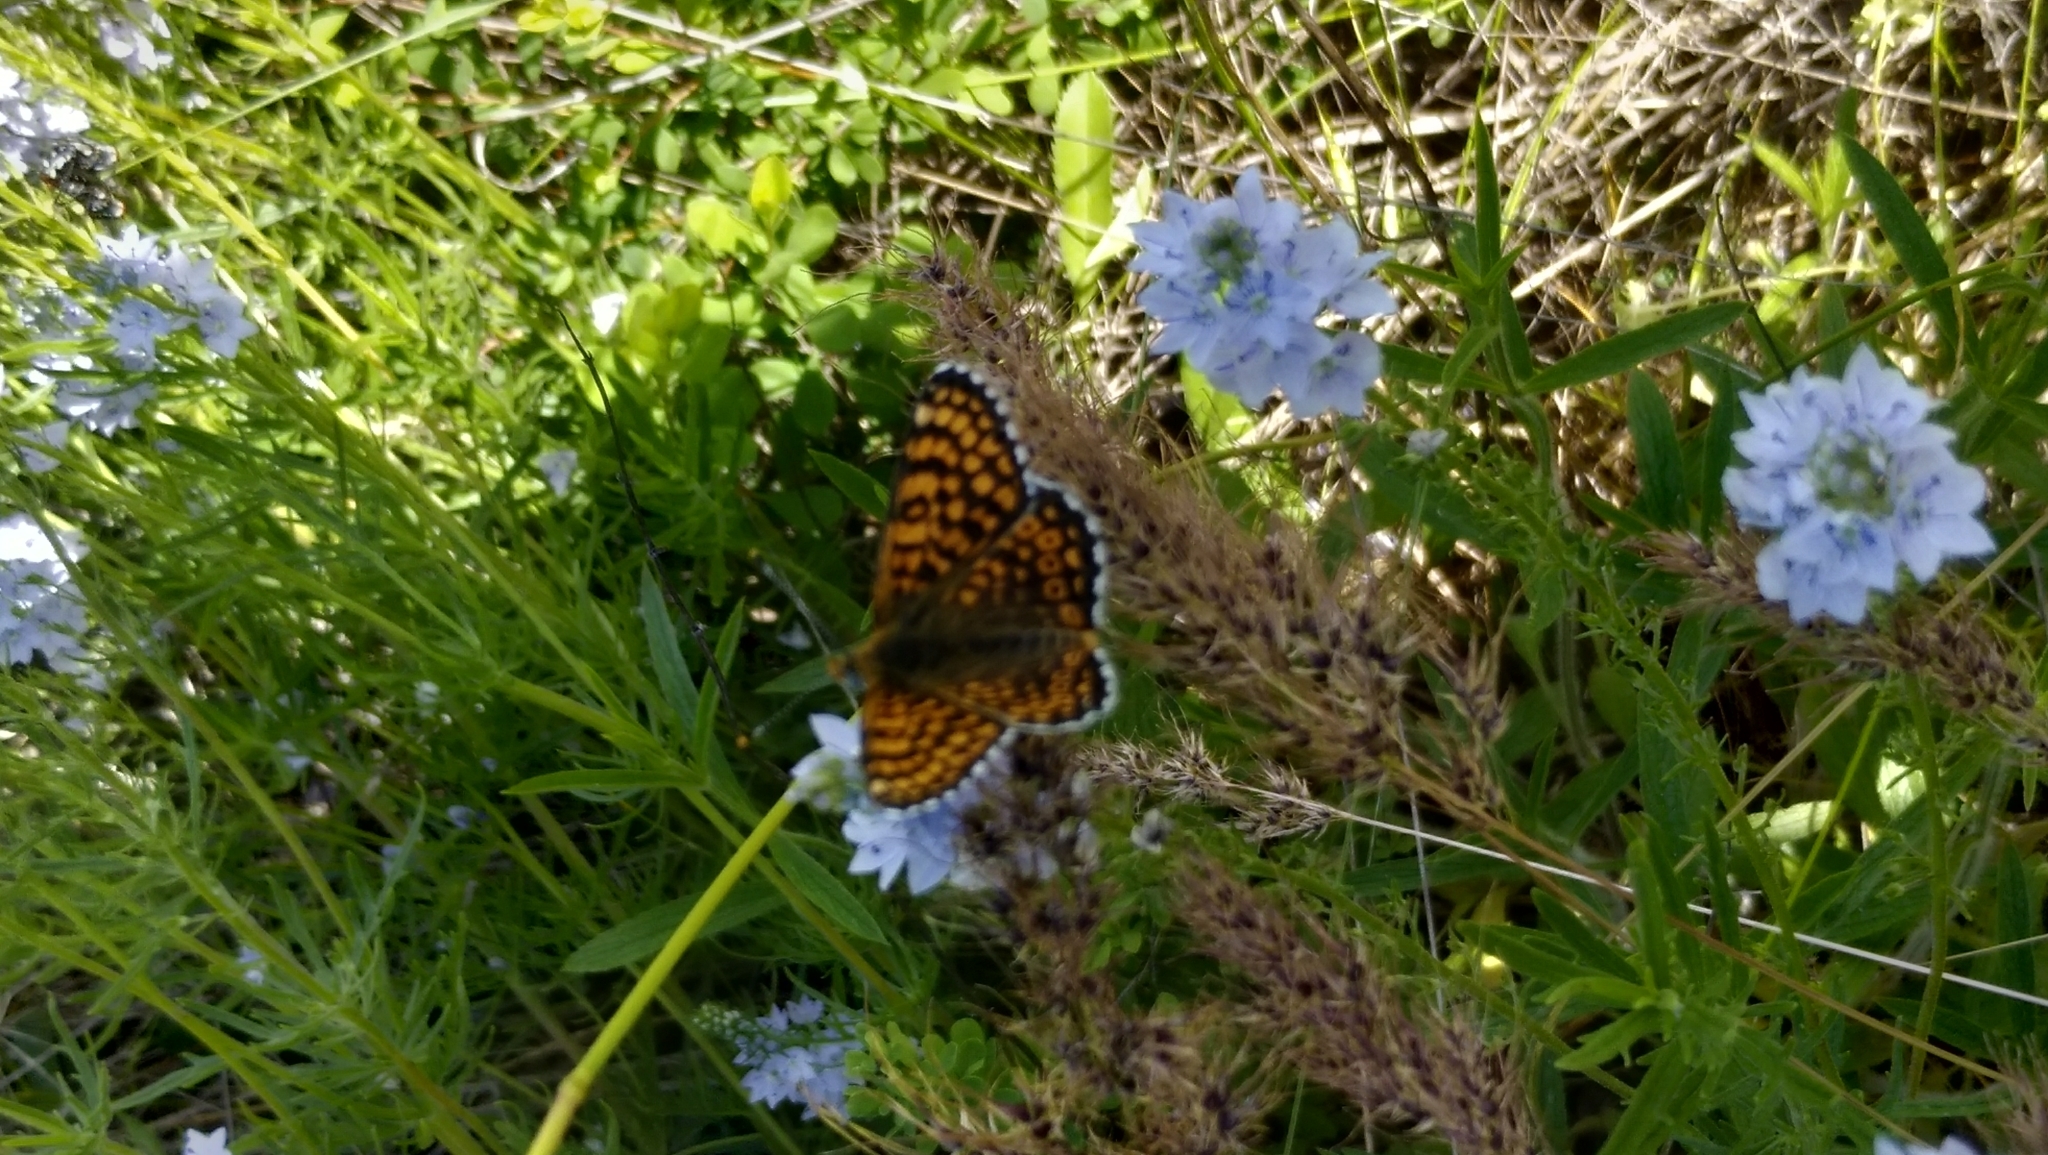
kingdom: Animalia
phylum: Arthropoda
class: Insecta
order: Lepidoptera
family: Nymphalidae
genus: Melitaea
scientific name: Melitaea cinxia
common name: Glanville fritillary
